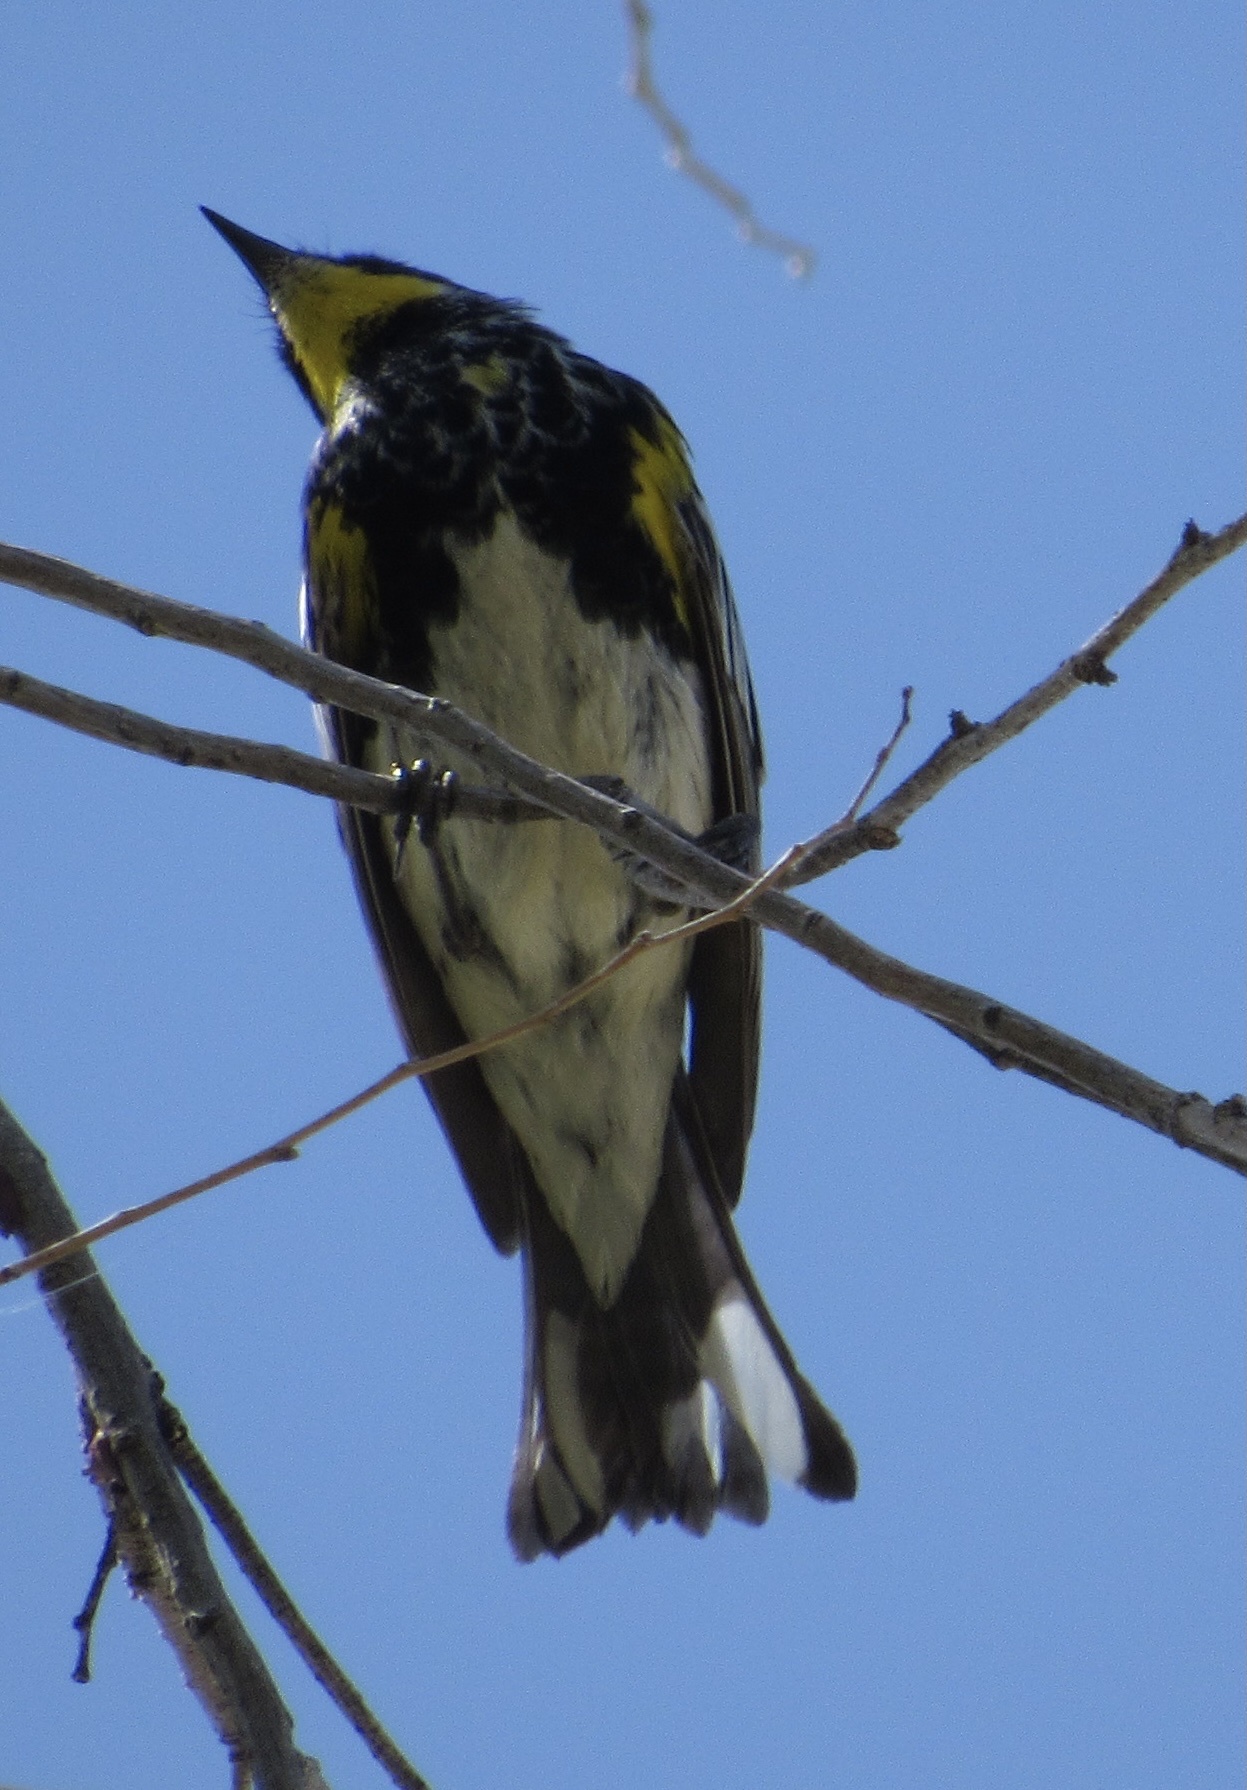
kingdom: Animalia
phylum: Chordata
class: Aves
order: Passeriformes
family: Parulidae
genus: Setophaga
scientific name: Setophaga coronata
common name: Myrtle warbler
